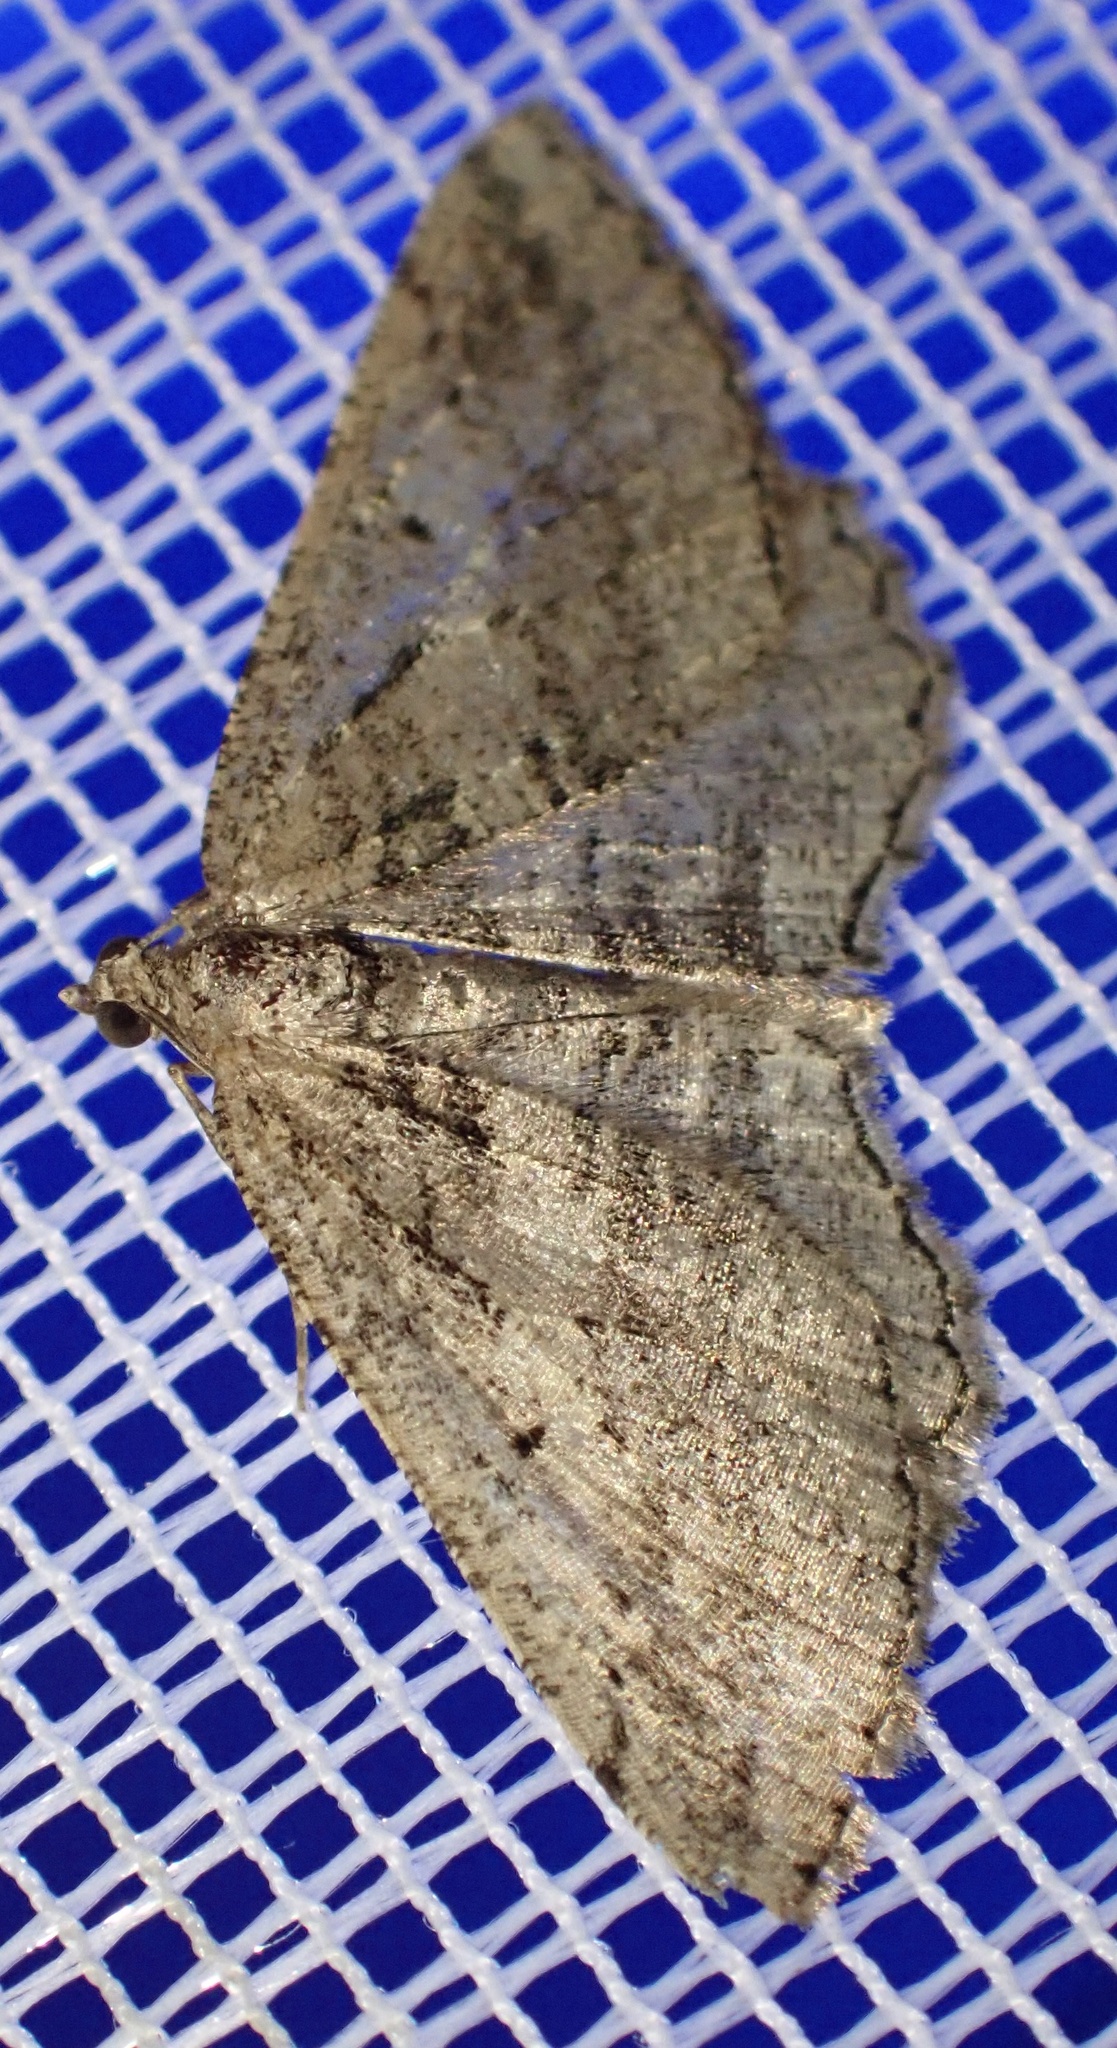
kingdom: Animalia
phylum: Arthropoda
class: Insecta
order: Lepidoptera
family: Geometridae
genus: Rhoptria
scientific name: Rhoptria asperaria
